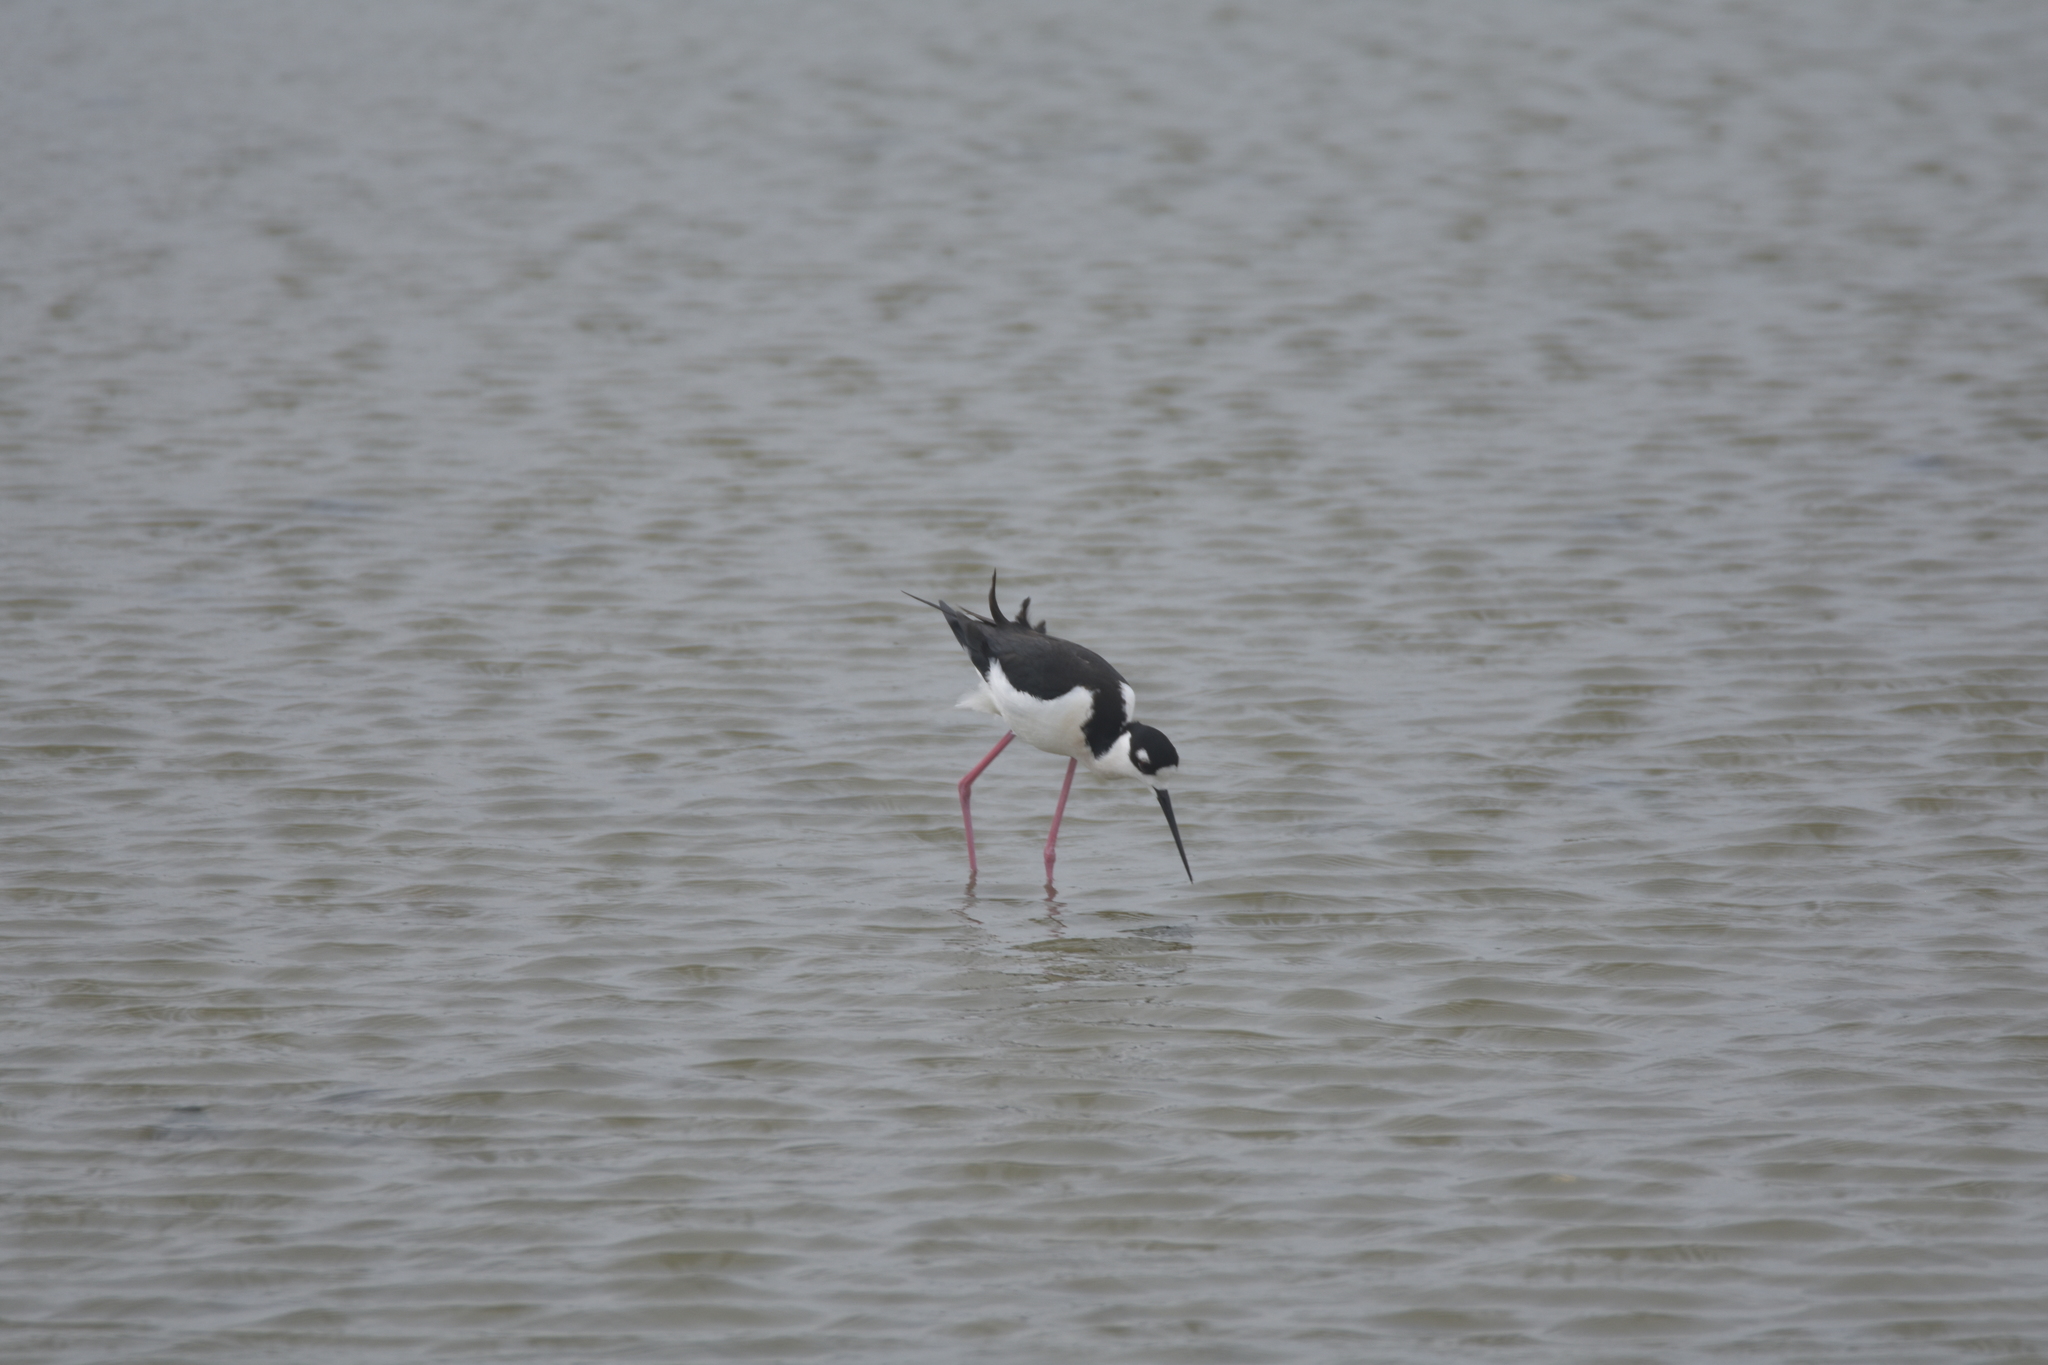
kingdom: Animalia
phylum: Chordata
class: Aves
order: Charadriiformes
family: Recurvirostridae
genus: Himantopus
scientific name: Himantopus mexicanus
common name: Black-necked stilt
